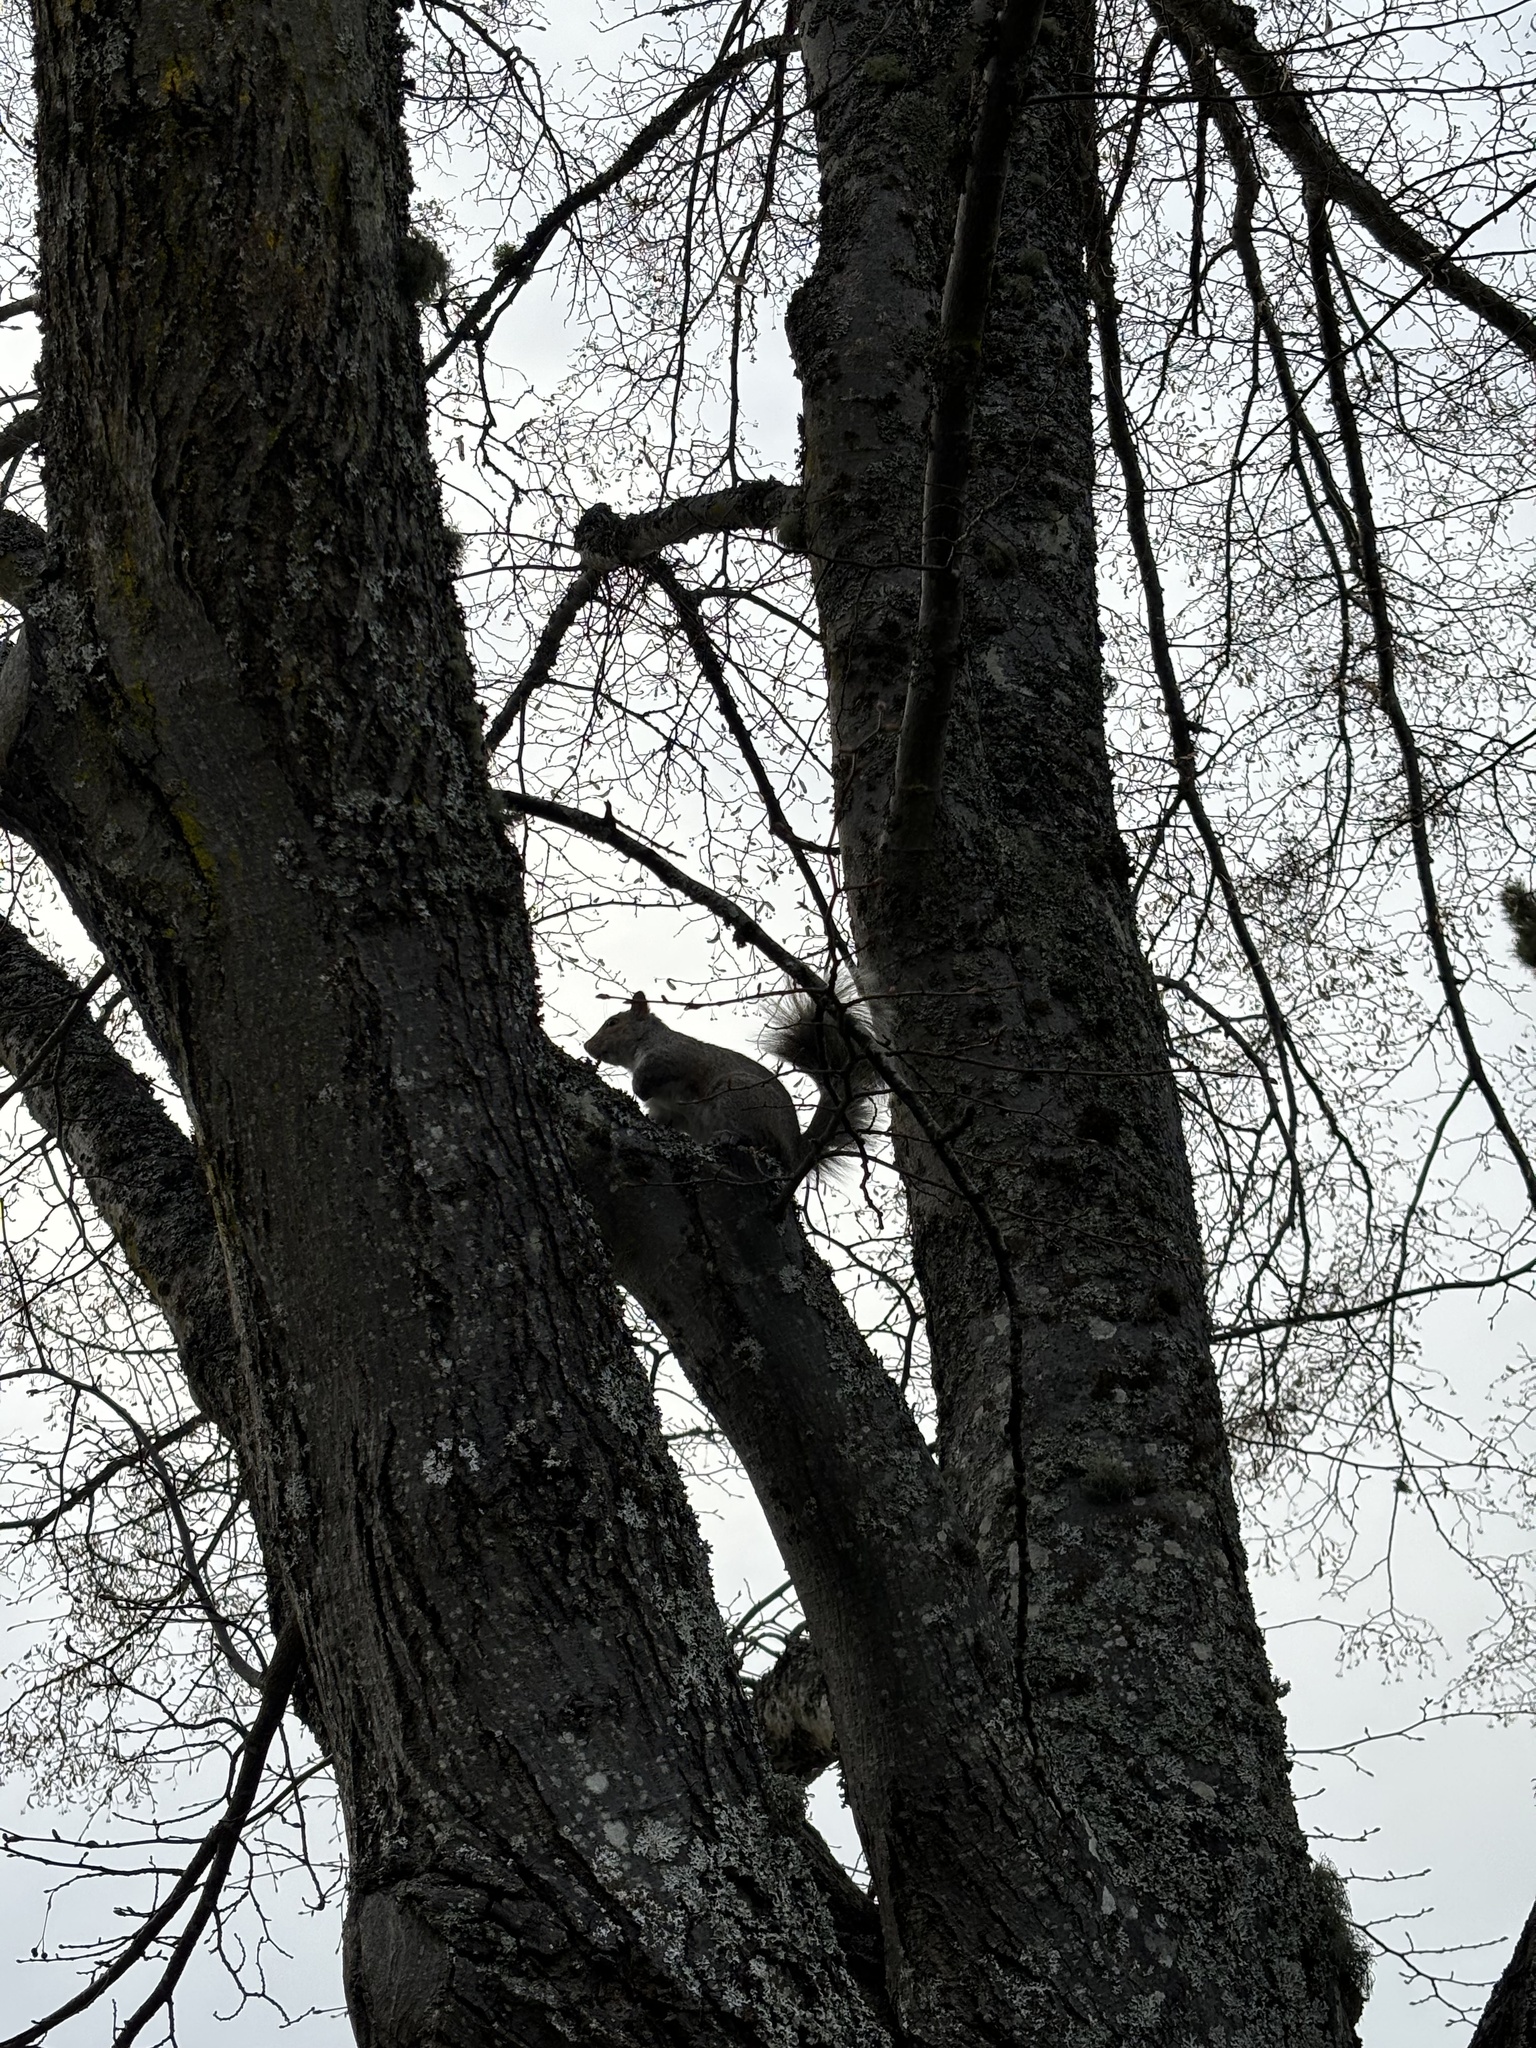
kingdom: Animalia
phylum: Chordata
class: Mammalia
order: Rodentia
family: Sciuridae
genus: Sciurus
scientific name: Sciurus carolinensis
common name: Eastern gray squirrel
